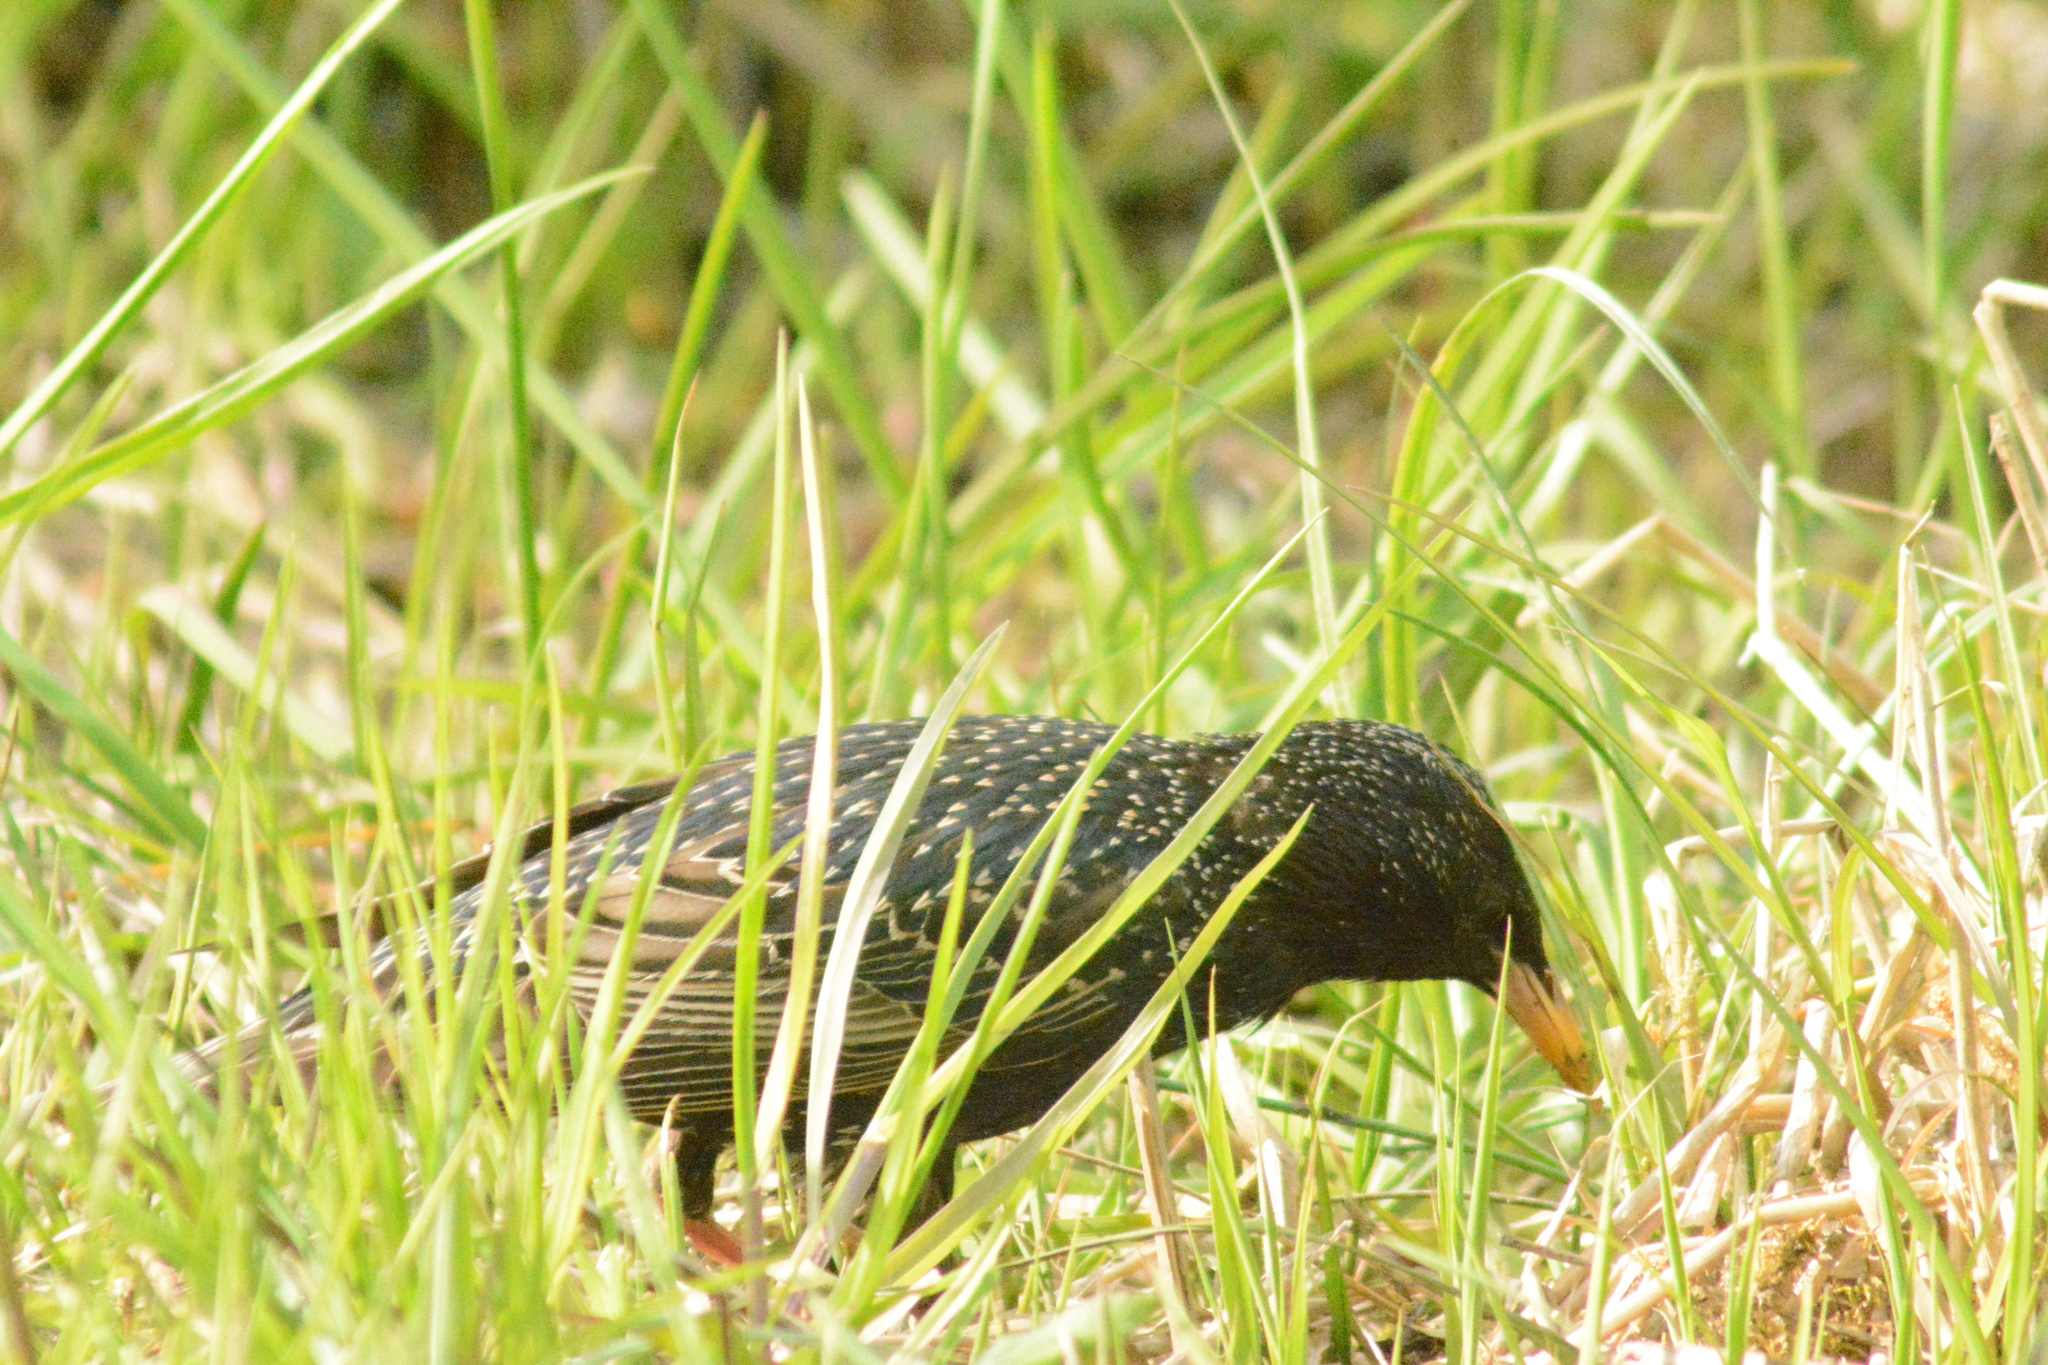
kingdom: Animalia
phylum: Chordata
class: Aves
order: Passeriformes
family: Sturnidae
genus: Sturnus
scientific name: Sturnus vulgaris
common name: Common starling
